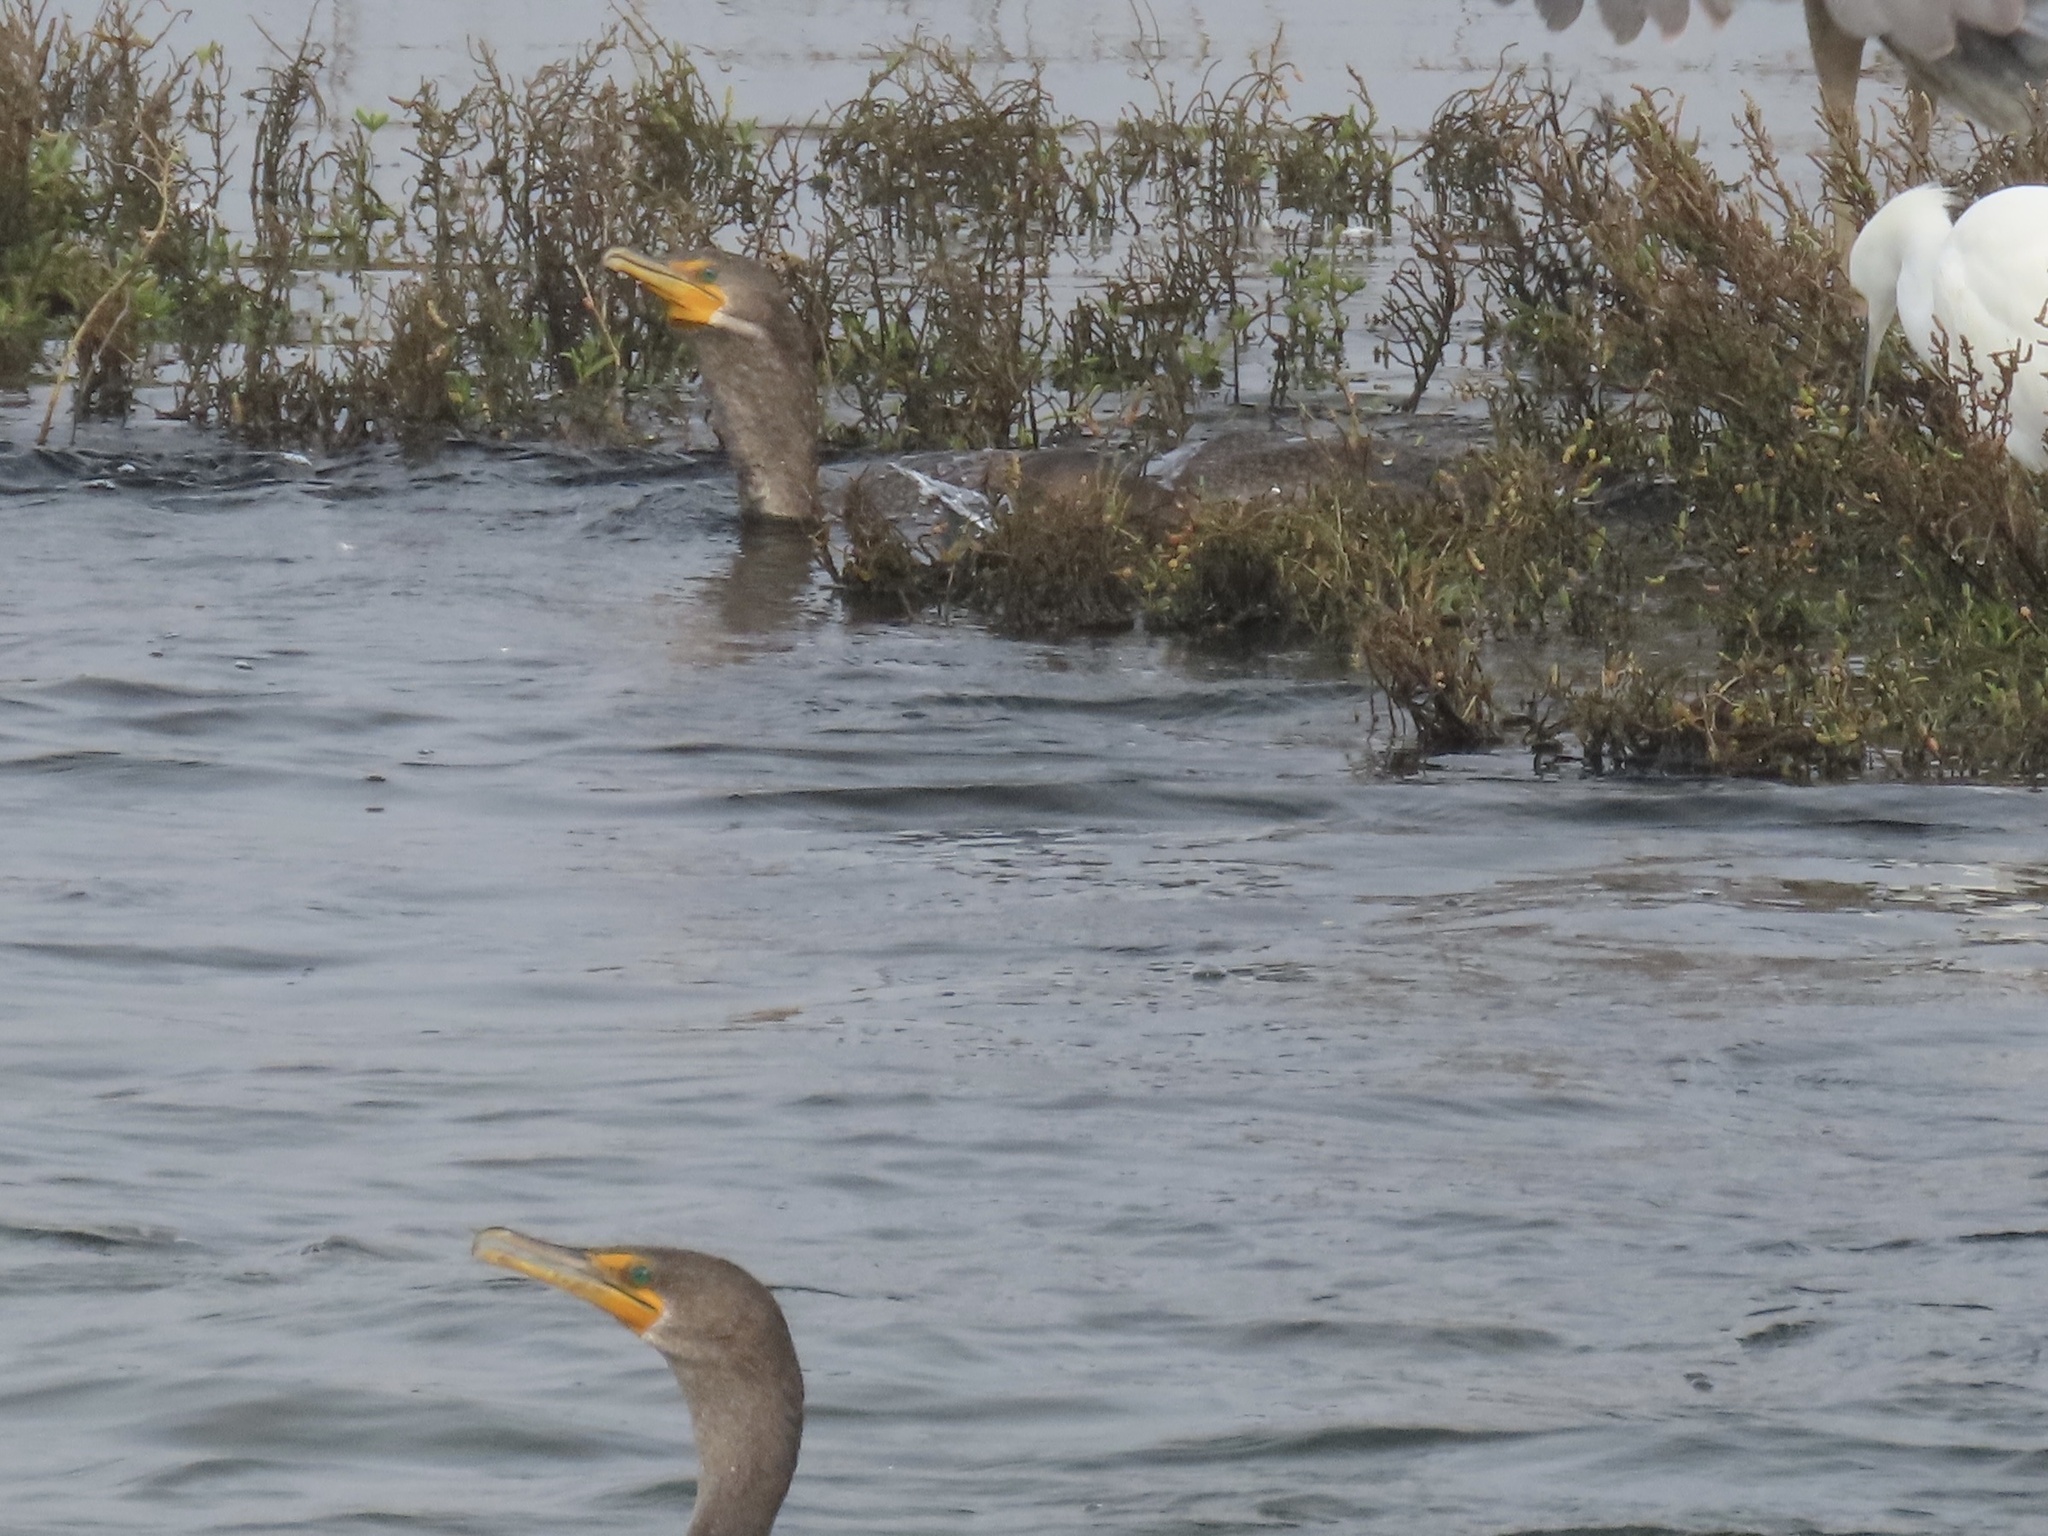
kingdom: Animalia
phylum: Chordata
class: Aves
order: Suliformes
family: Phalacrocoracidae
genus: Phalacrocorax
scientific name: Phalacrocorax auritus
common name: Double-crested cormorant
